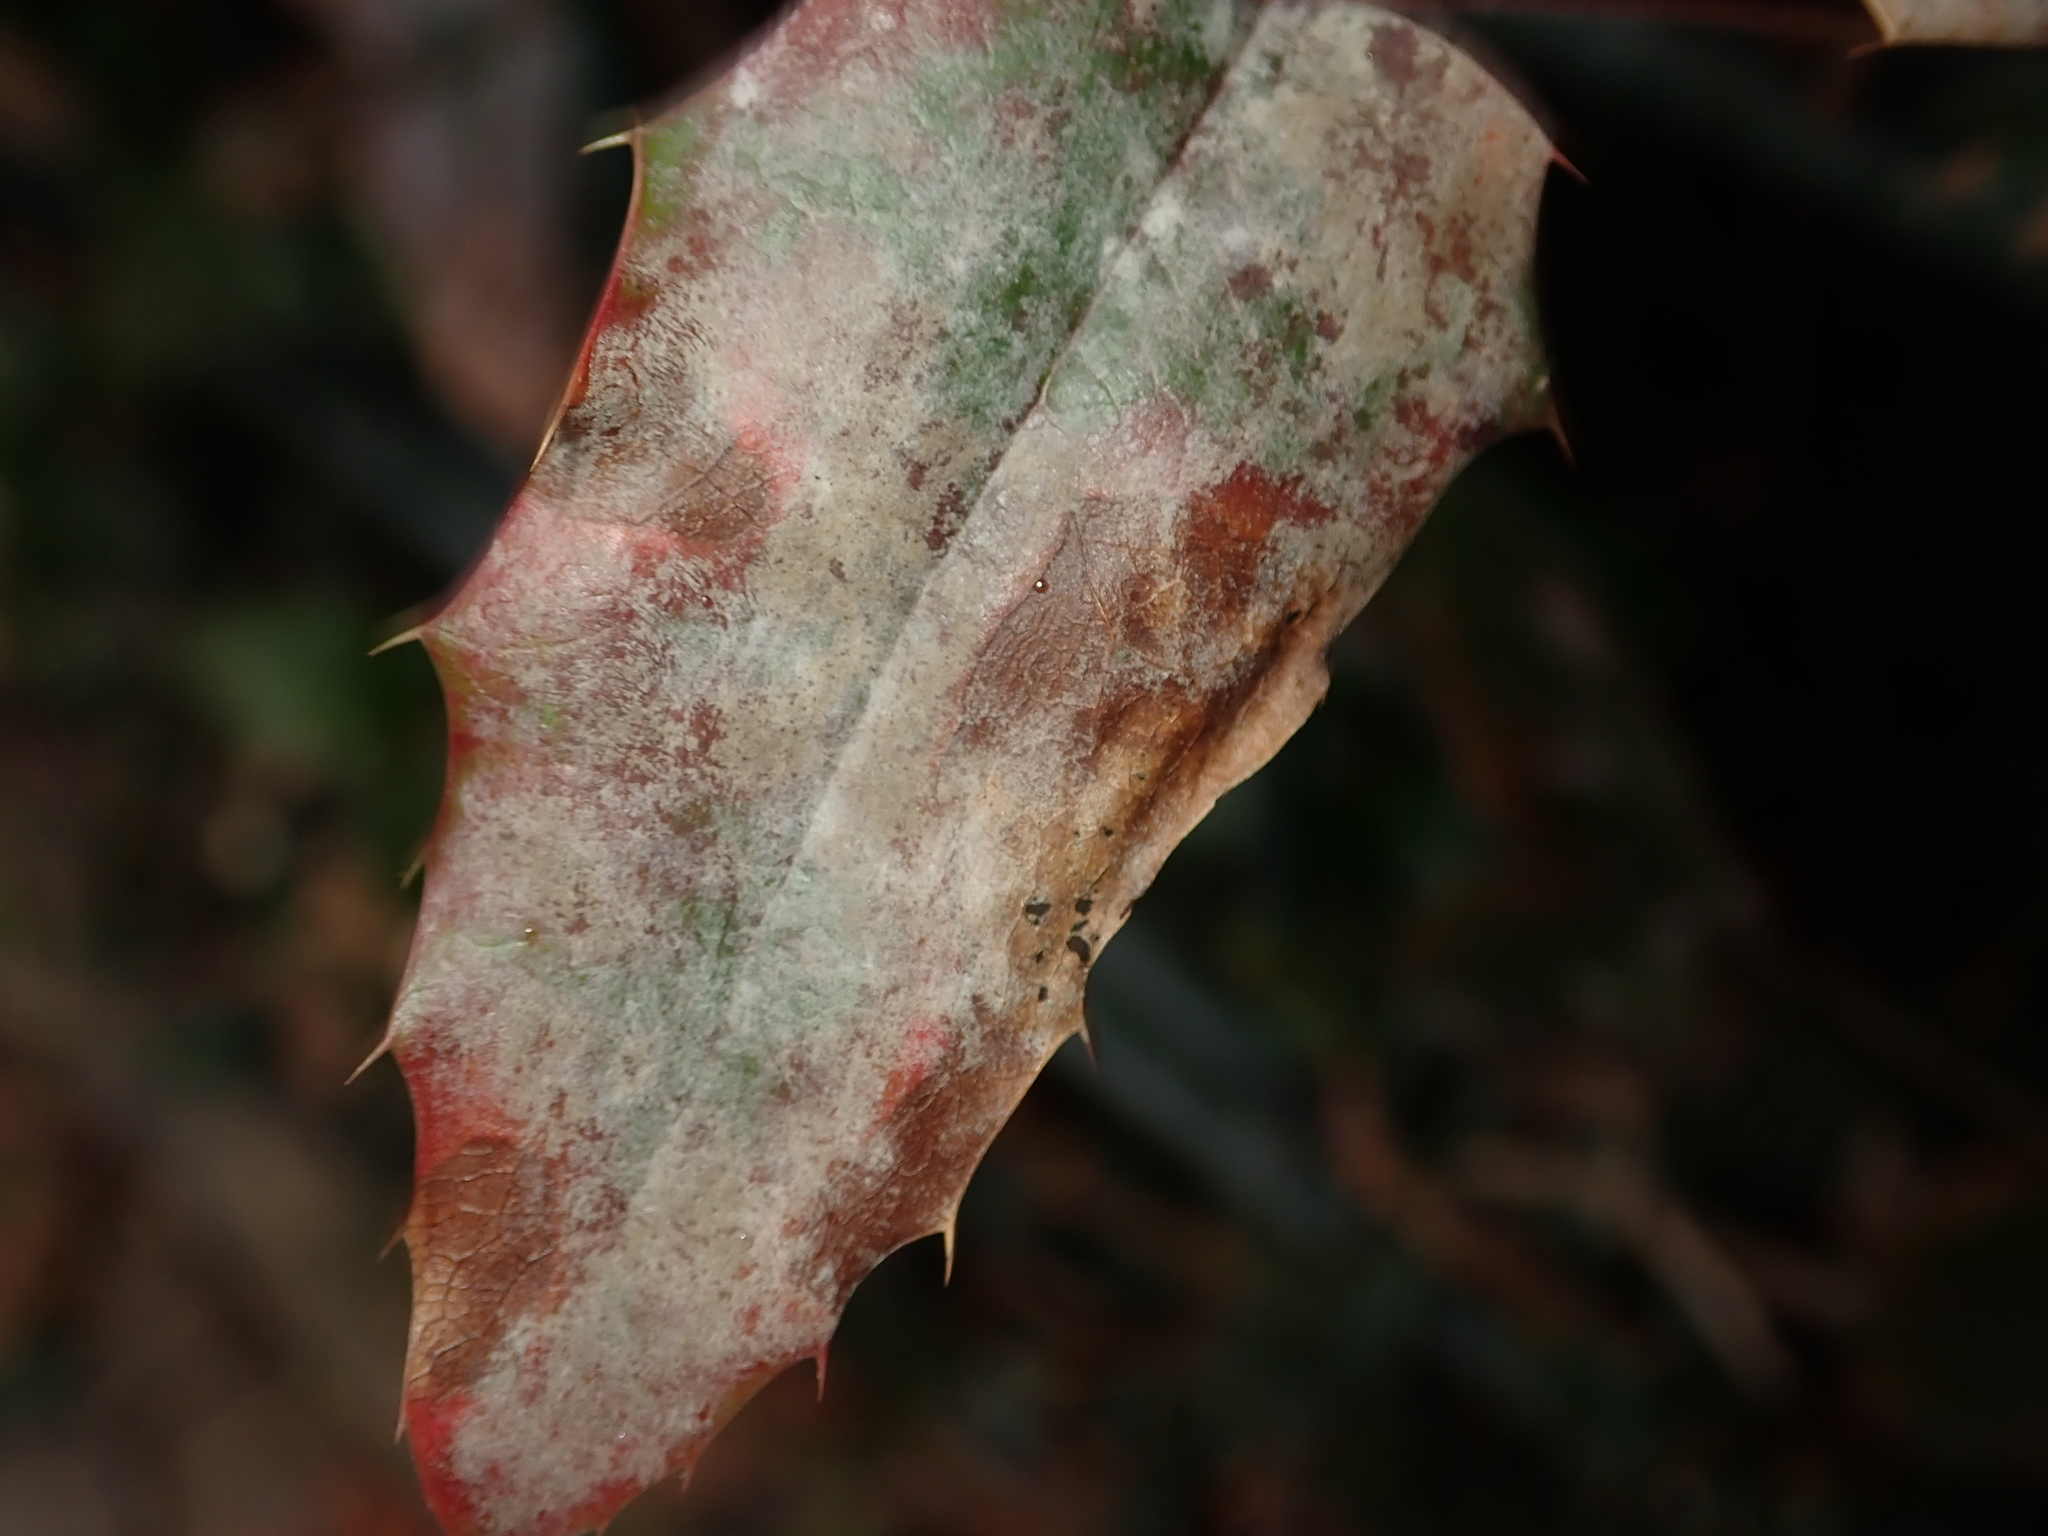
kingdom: Fungi
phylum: Ascomycota
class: Leotiomycetes
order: Helotiales
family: Erysiphaceae
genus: Erysiphe
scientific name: Erysiphe berberidis
